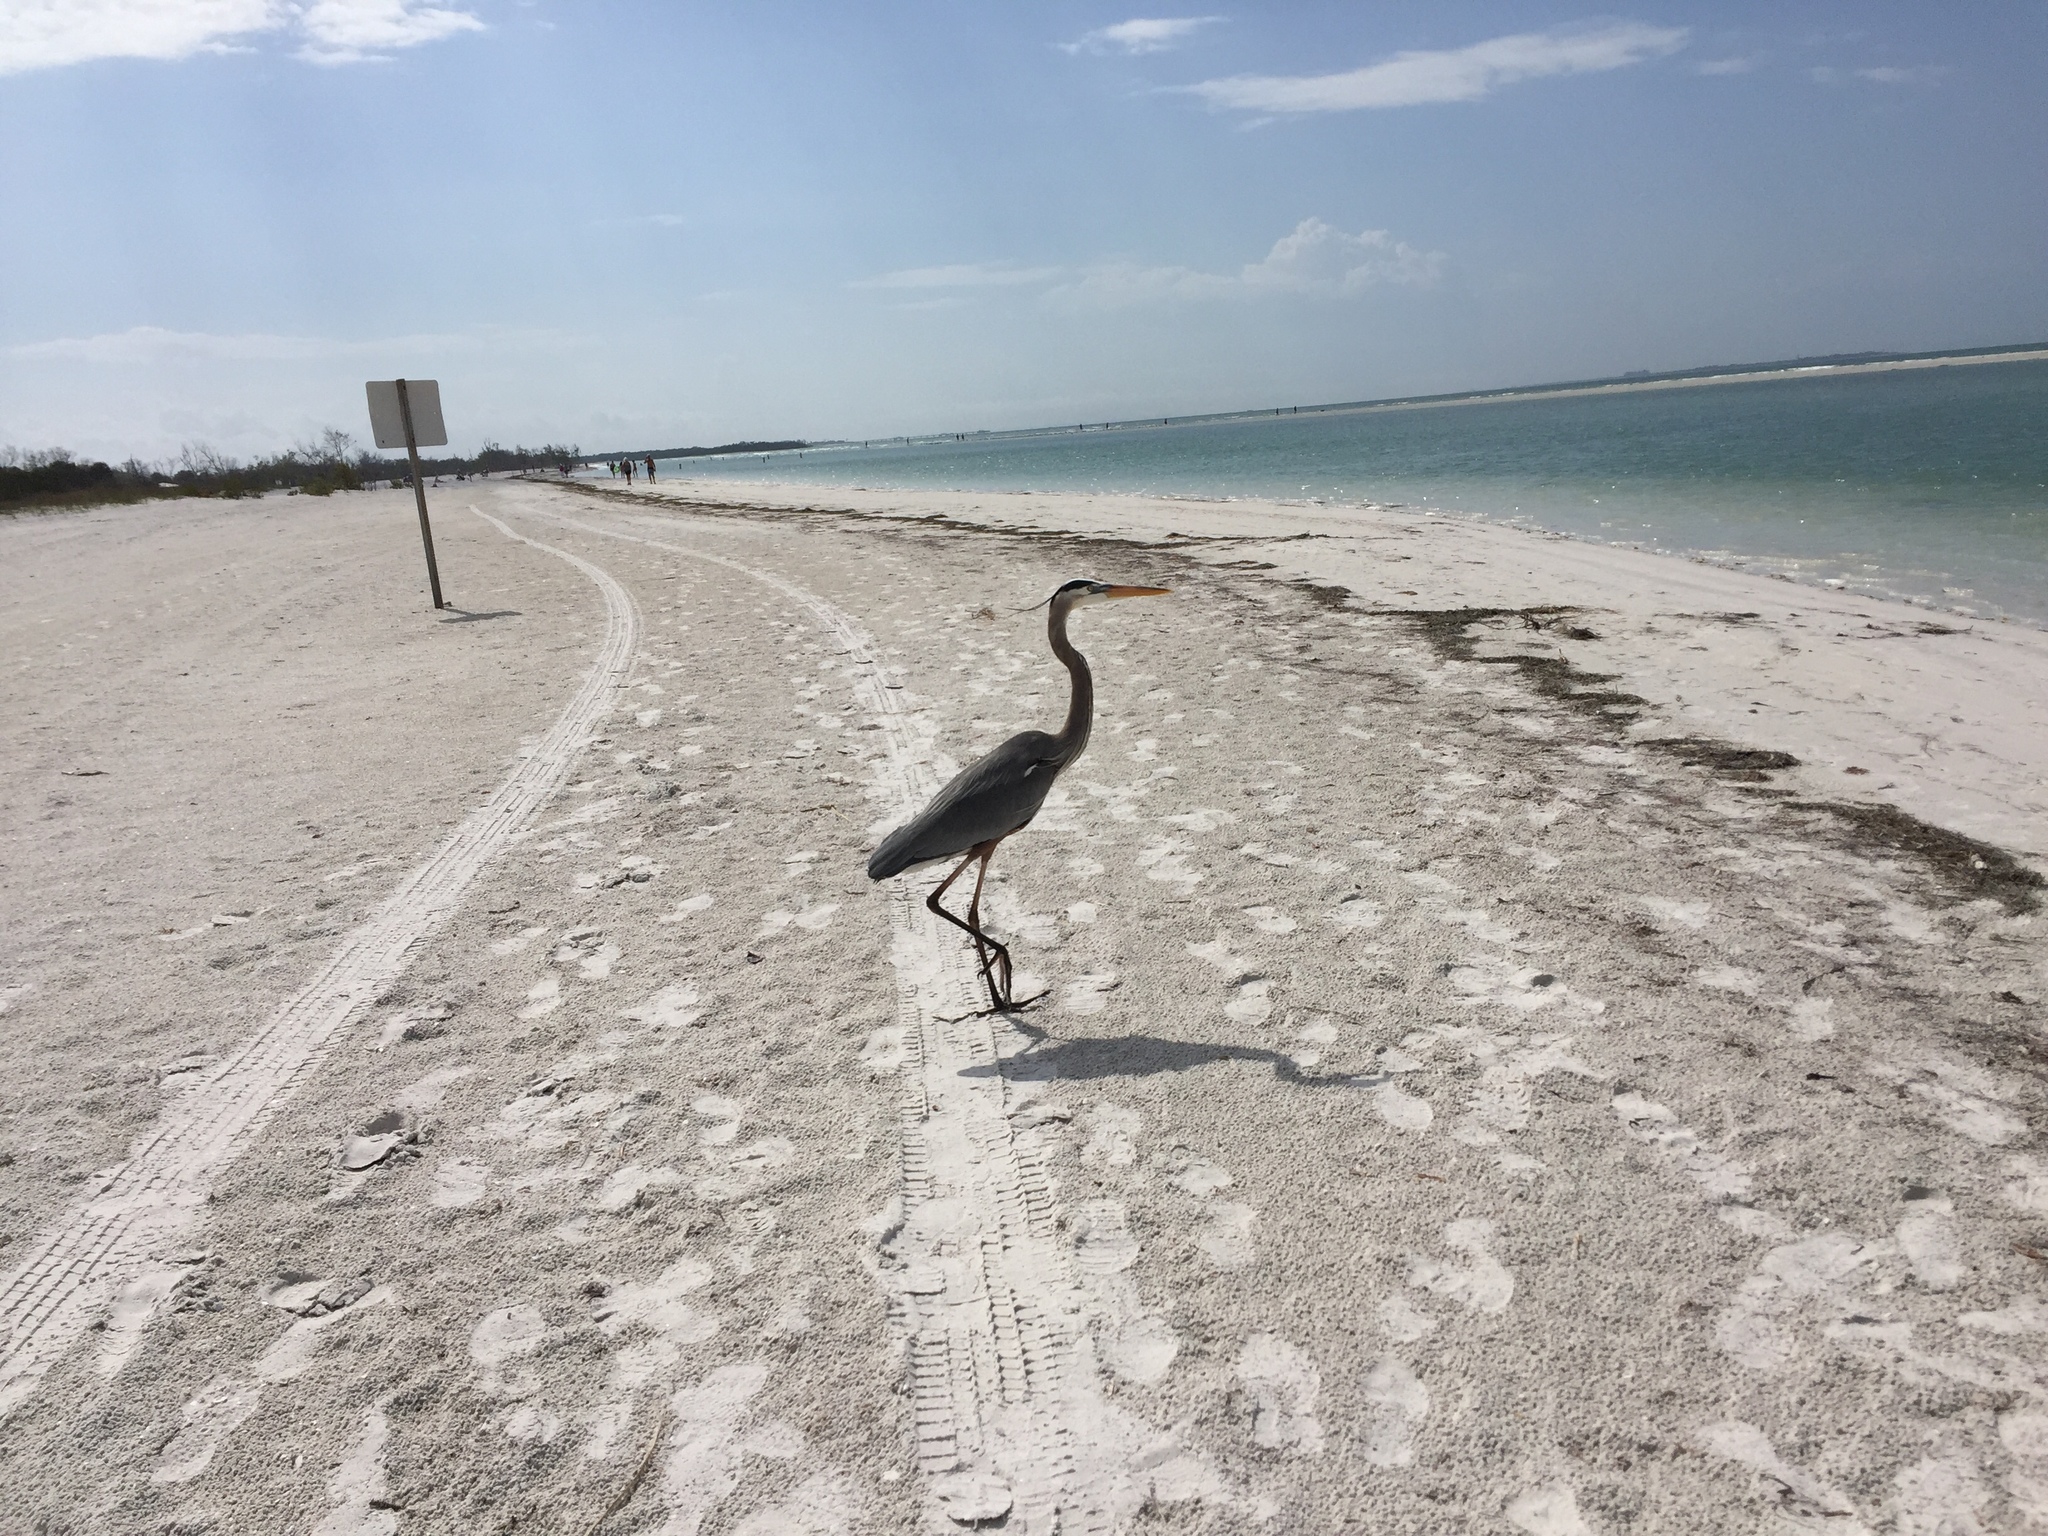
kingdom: Animalia
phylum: Chordata
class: Aves
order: Pelecaniformes
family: Ardeidae
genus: Ardea
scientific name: Ardea herodias
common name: Great blue heron
